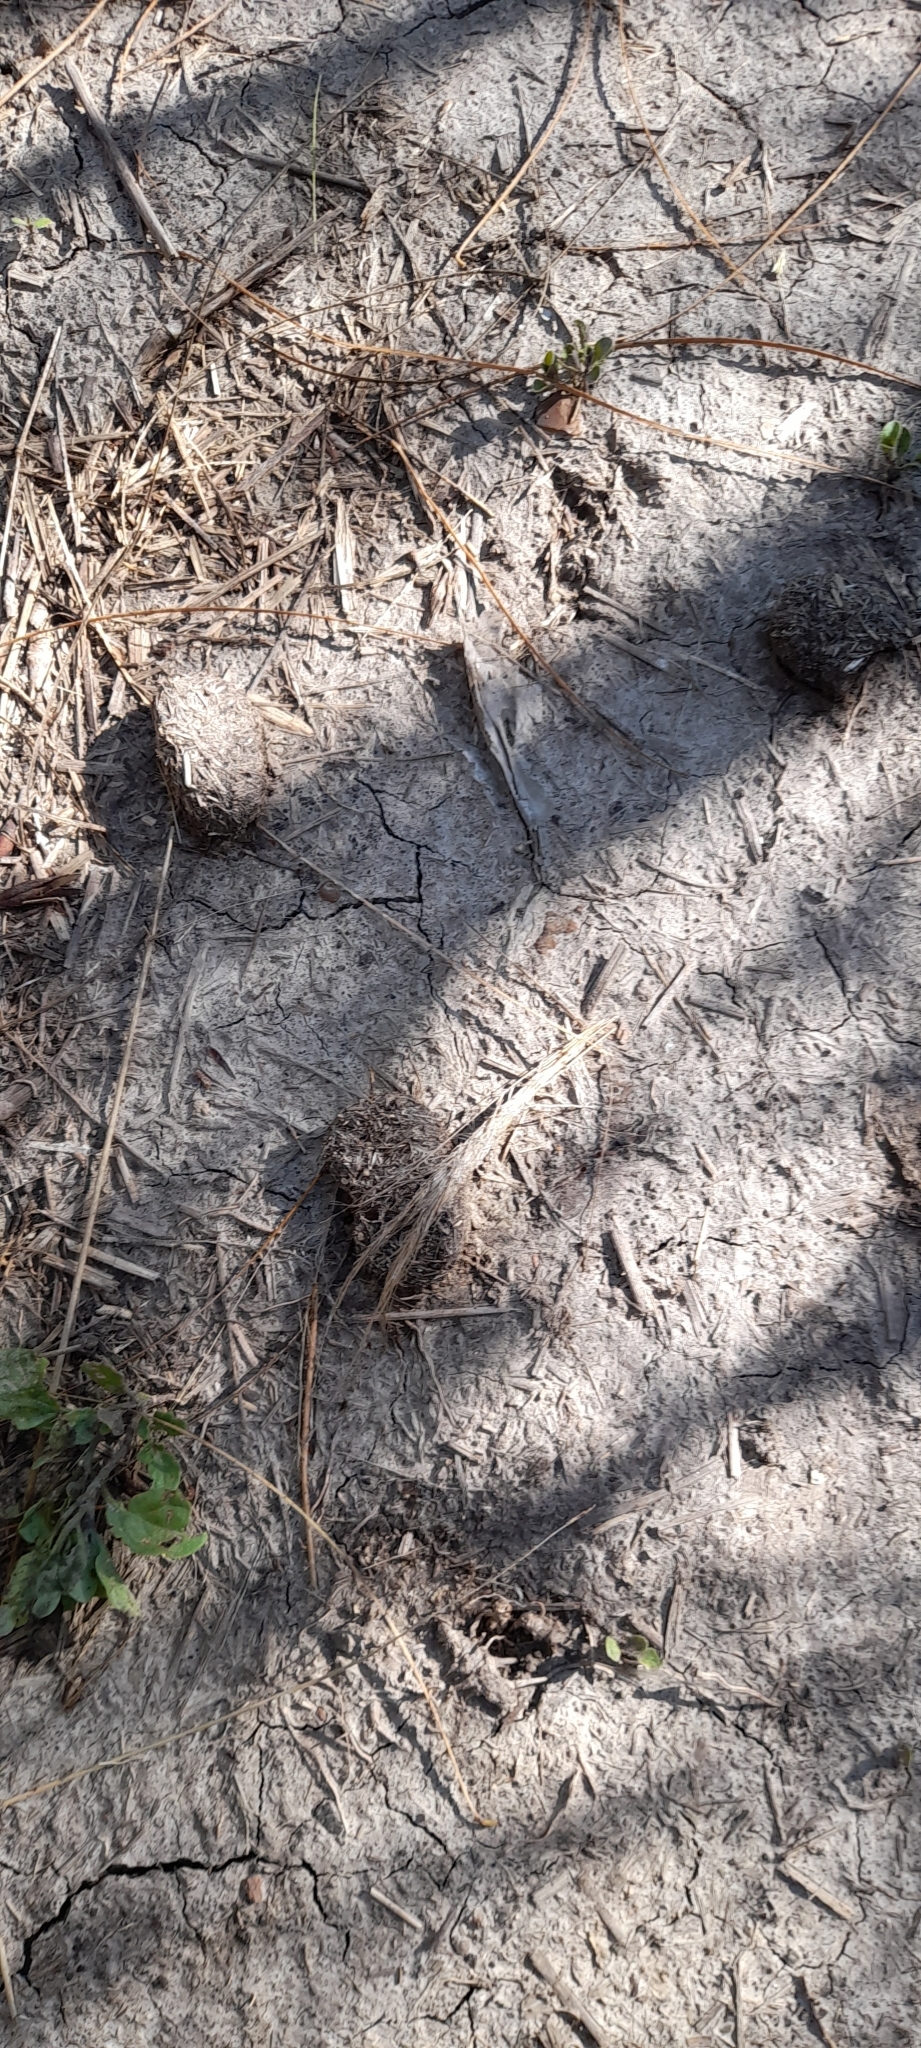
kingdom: Animalia
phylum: Chordata
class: Mammalia
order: Rodentia
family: Caviidae
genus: Hydrochoerus
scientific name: Hydrochoerus hydrochaeris
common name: Capybara
